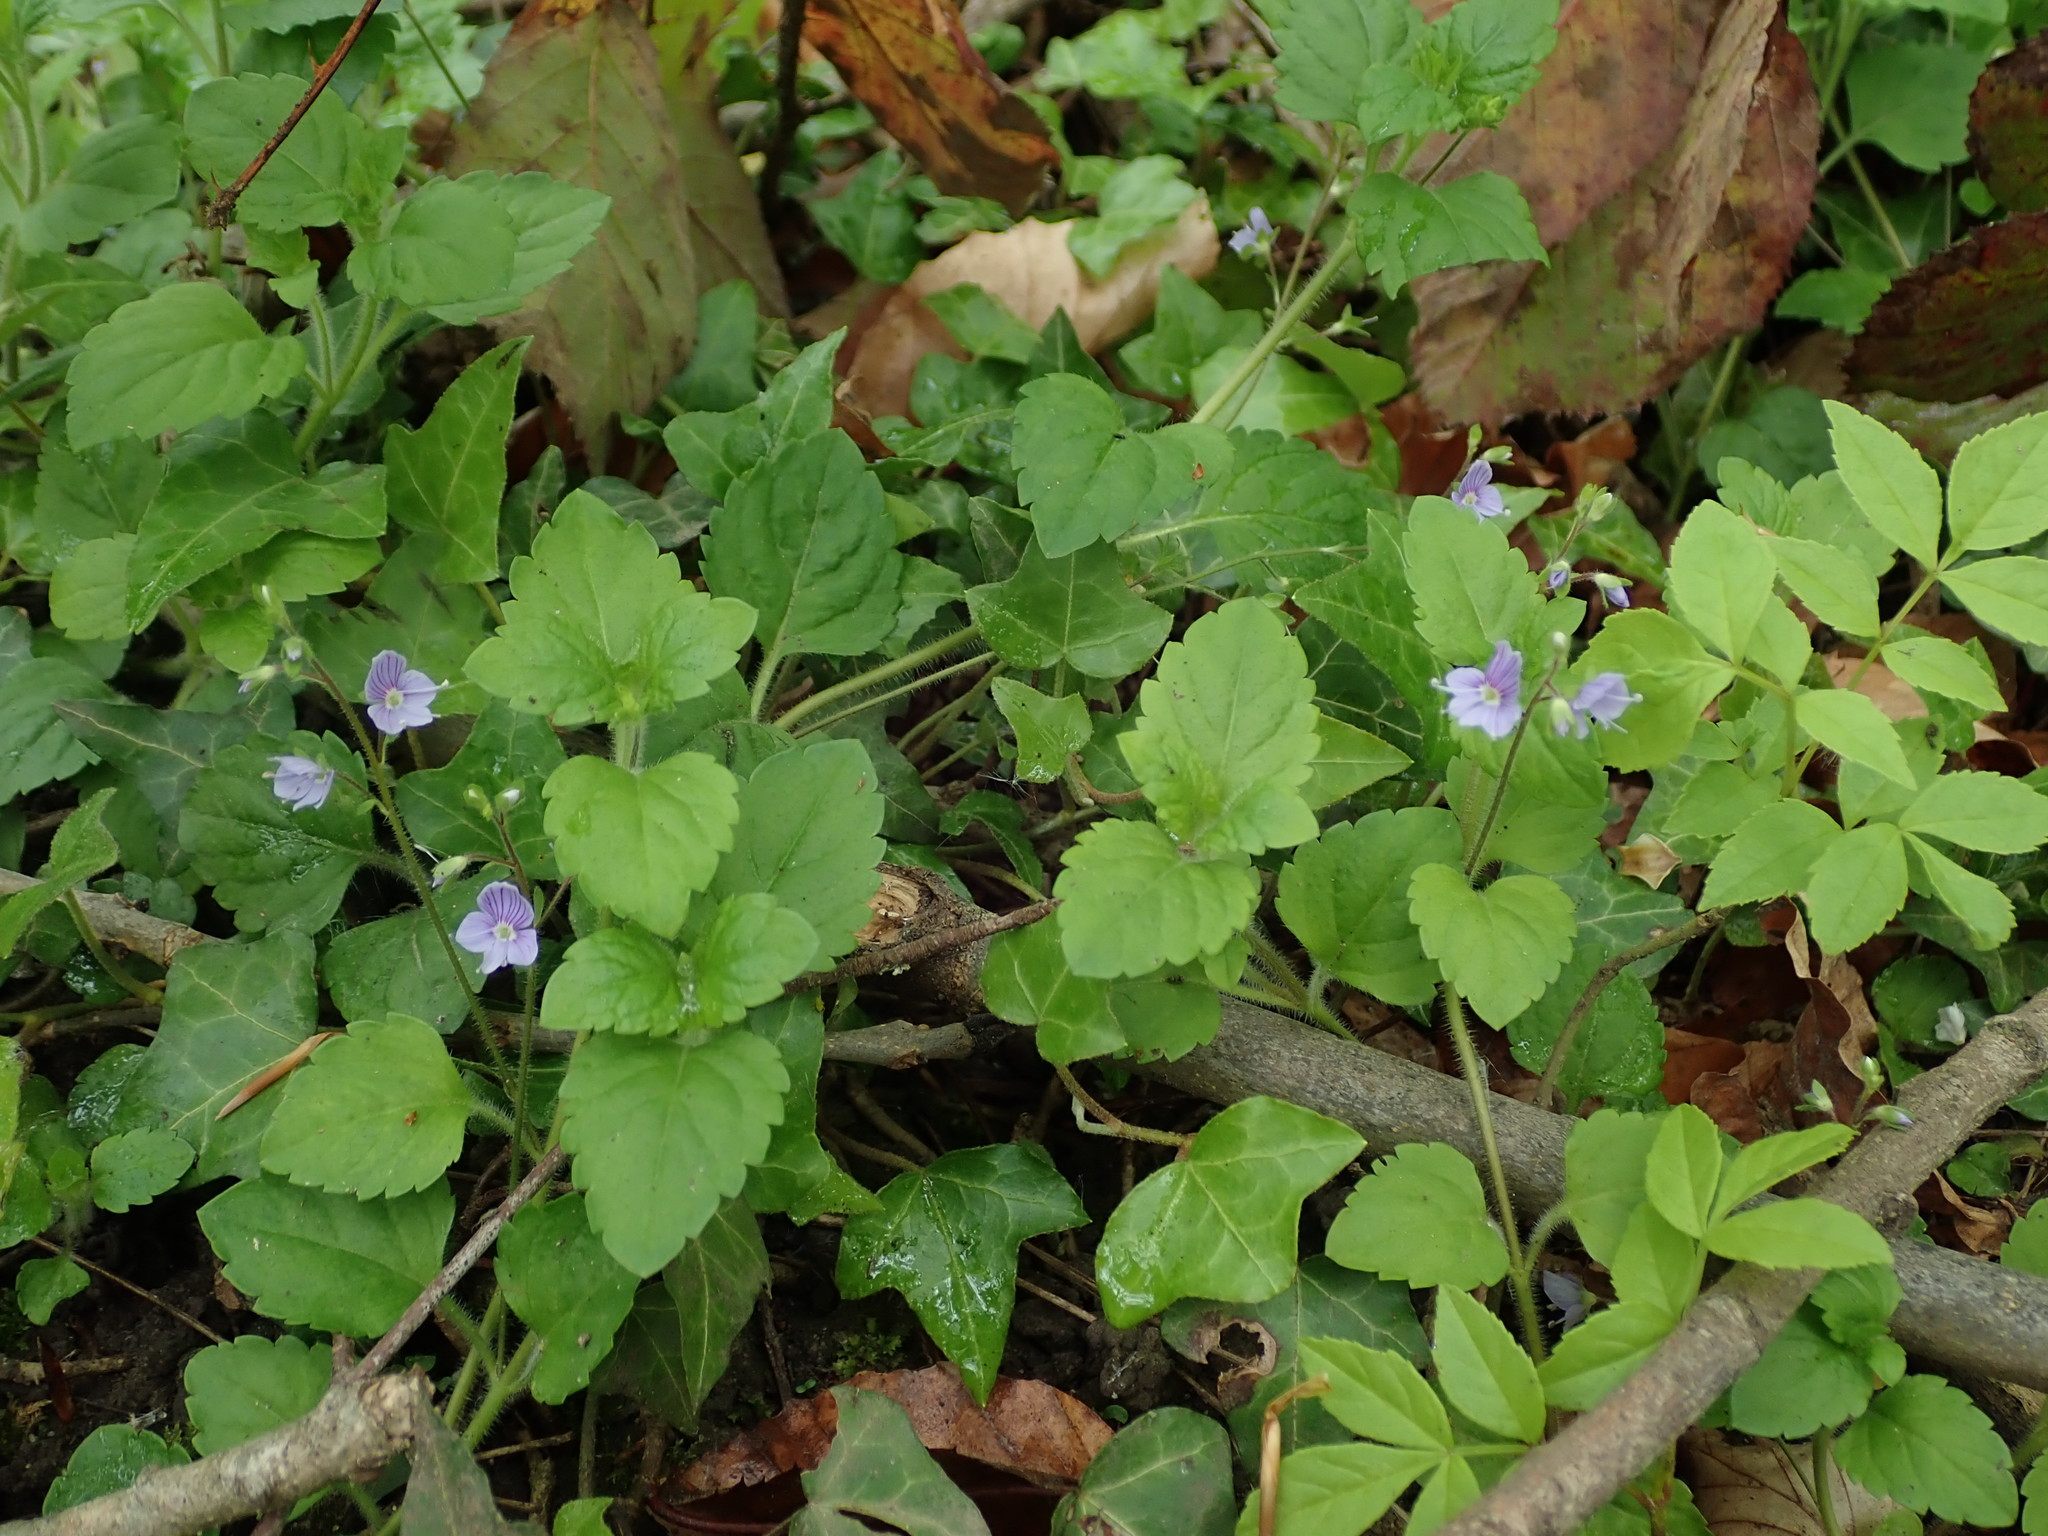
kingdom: Plantae
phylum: Tracheophyta
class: Magnoliopsida
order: Lamiales
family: Plantaginaceae
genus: Veronica
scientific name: Veronica montana
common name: Wood speedwell
